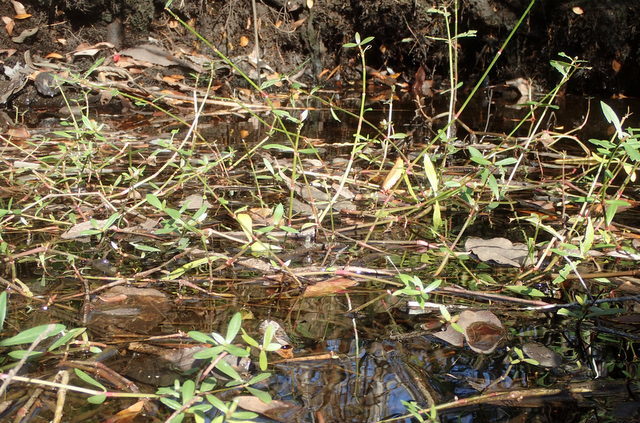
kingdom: Plantae
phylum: Tracheophyta
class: Magnoliopsida
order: Caryophyllales
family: Amaranthaceae
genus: Alternanthera
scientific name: Alternanthera philoxeroides
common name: Alligatorweed
